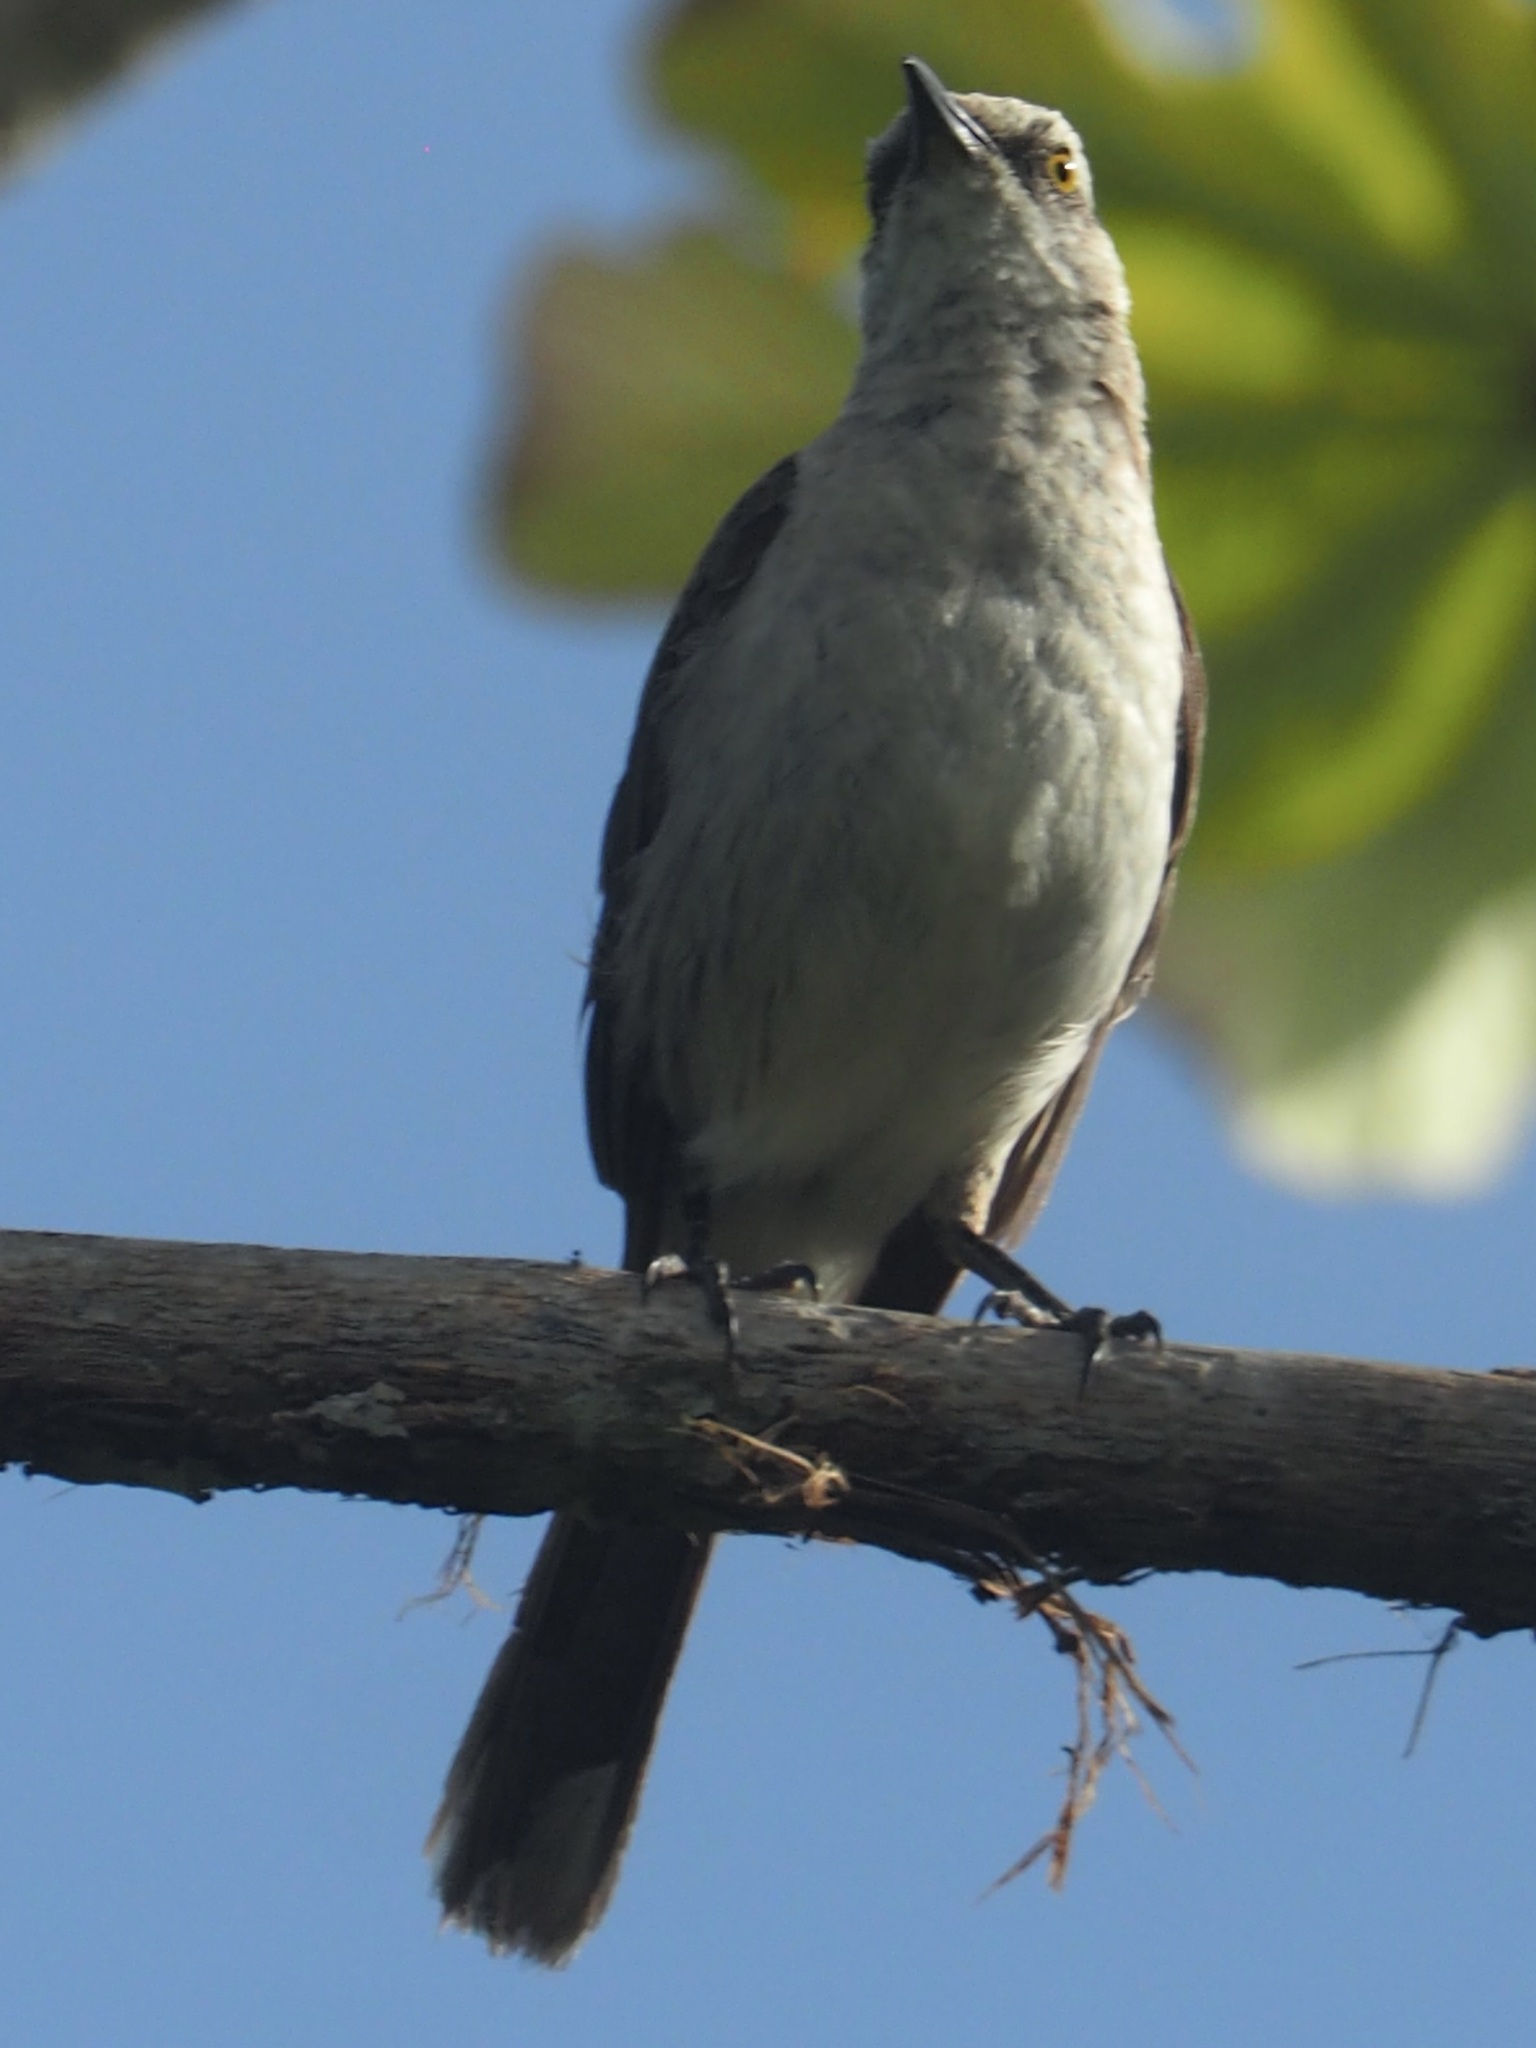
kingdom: Animalia
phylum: Chordata
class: Aves
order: Passeriformes
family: Mimidae
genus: Mimus
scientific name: Mimus gilvus
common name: Tropical mockingbird
